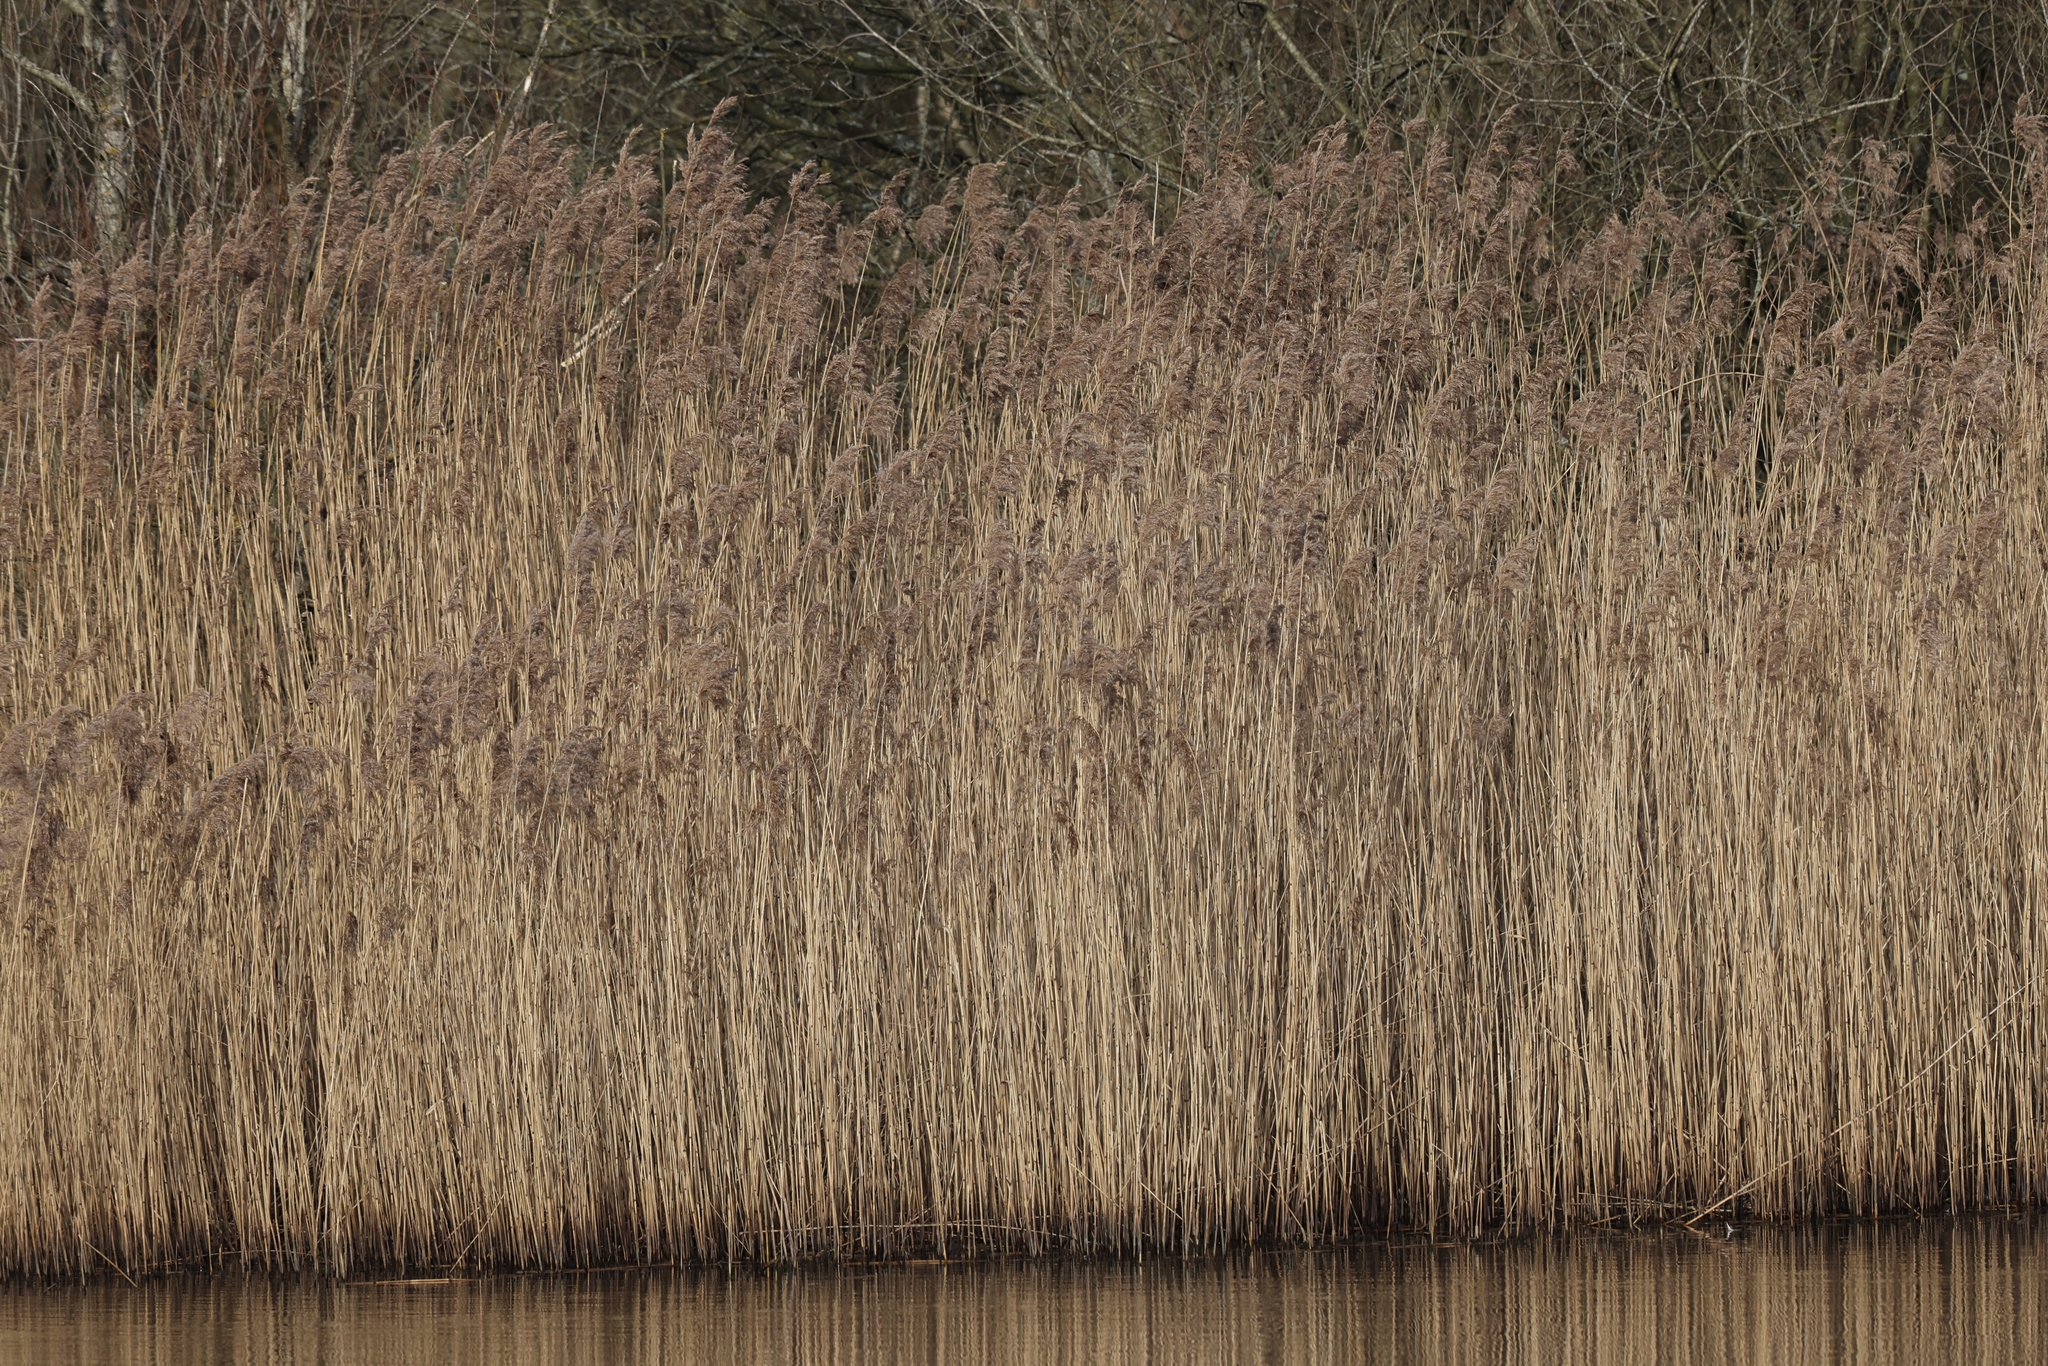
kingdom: Plantae
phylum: Tracheophyta
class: Liliopsida
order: Poales
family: Poaceae
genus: Phragmites
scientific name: Phragmites australis
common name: Common reed
